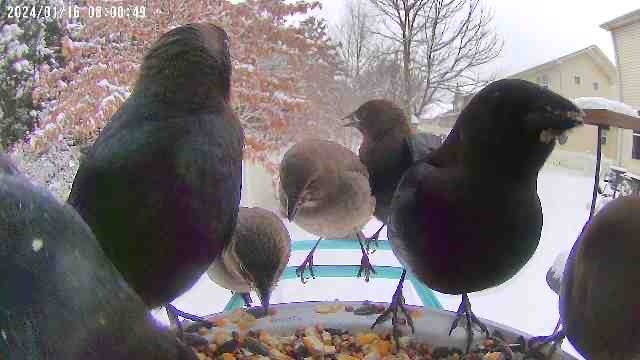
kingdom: Animalia
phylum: Chordata
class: Aves
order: Passeriformes
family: Icteridae
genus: Molothrus
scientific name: Molothrus ater
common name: Brown-headed cowbird
